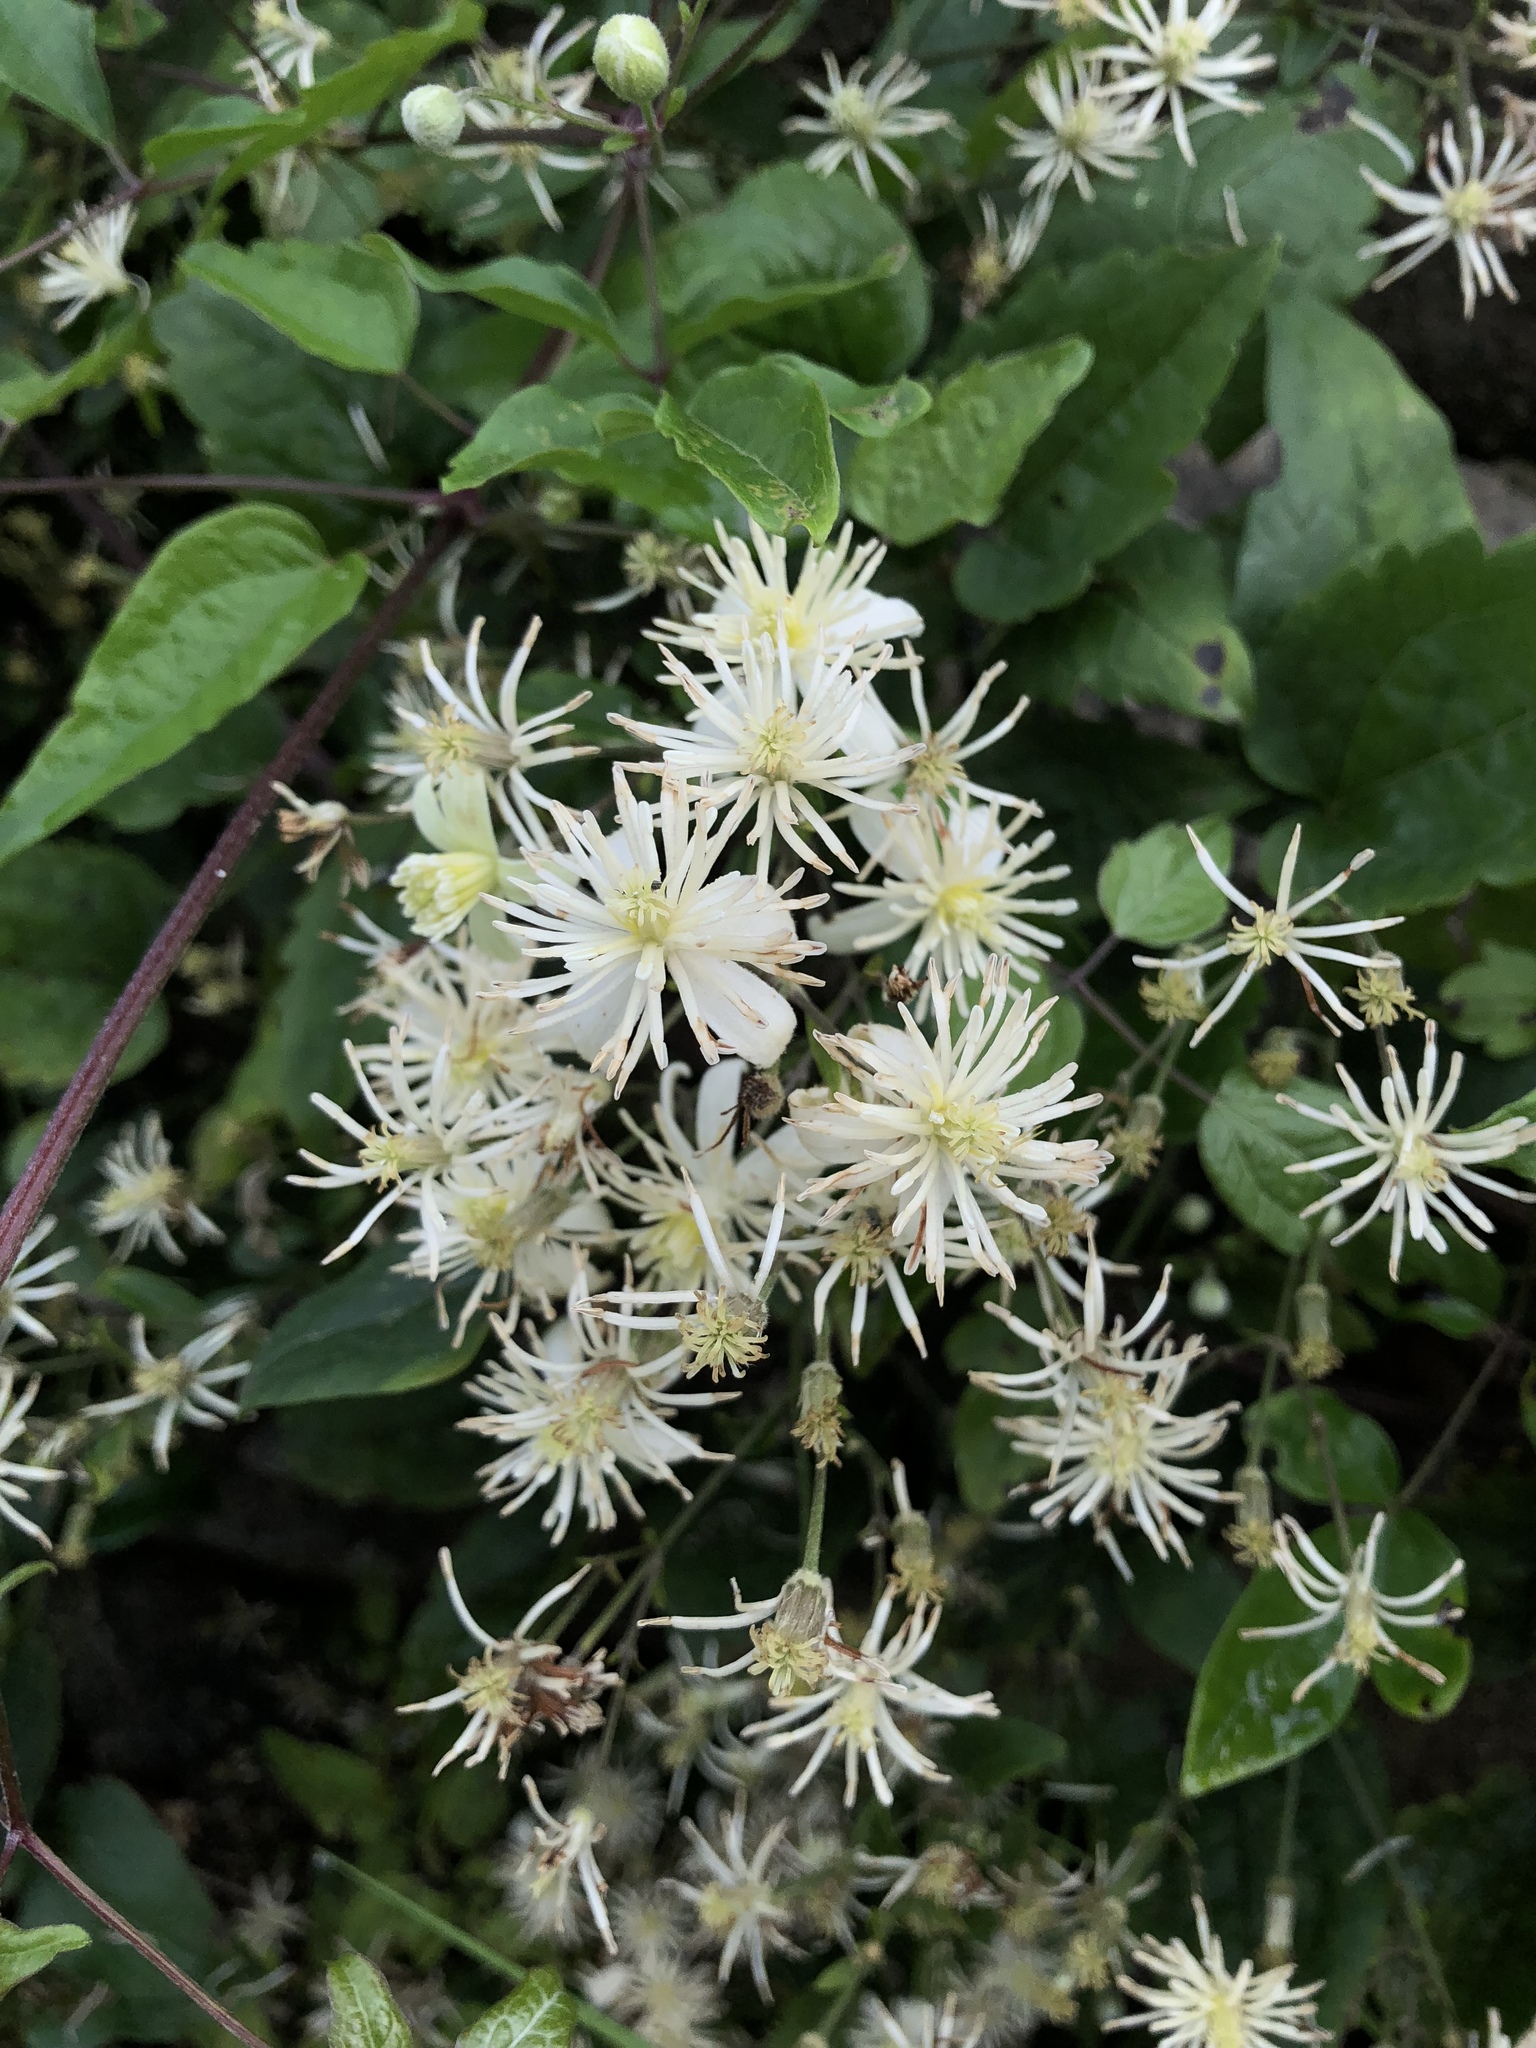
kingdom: Plantae
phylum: Tracheophyta
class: Magnoliopsida
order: Ranunculales
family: Ranunculaceae
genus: Clematis
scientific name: Clematis vitalba
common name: Evergreen clematis
